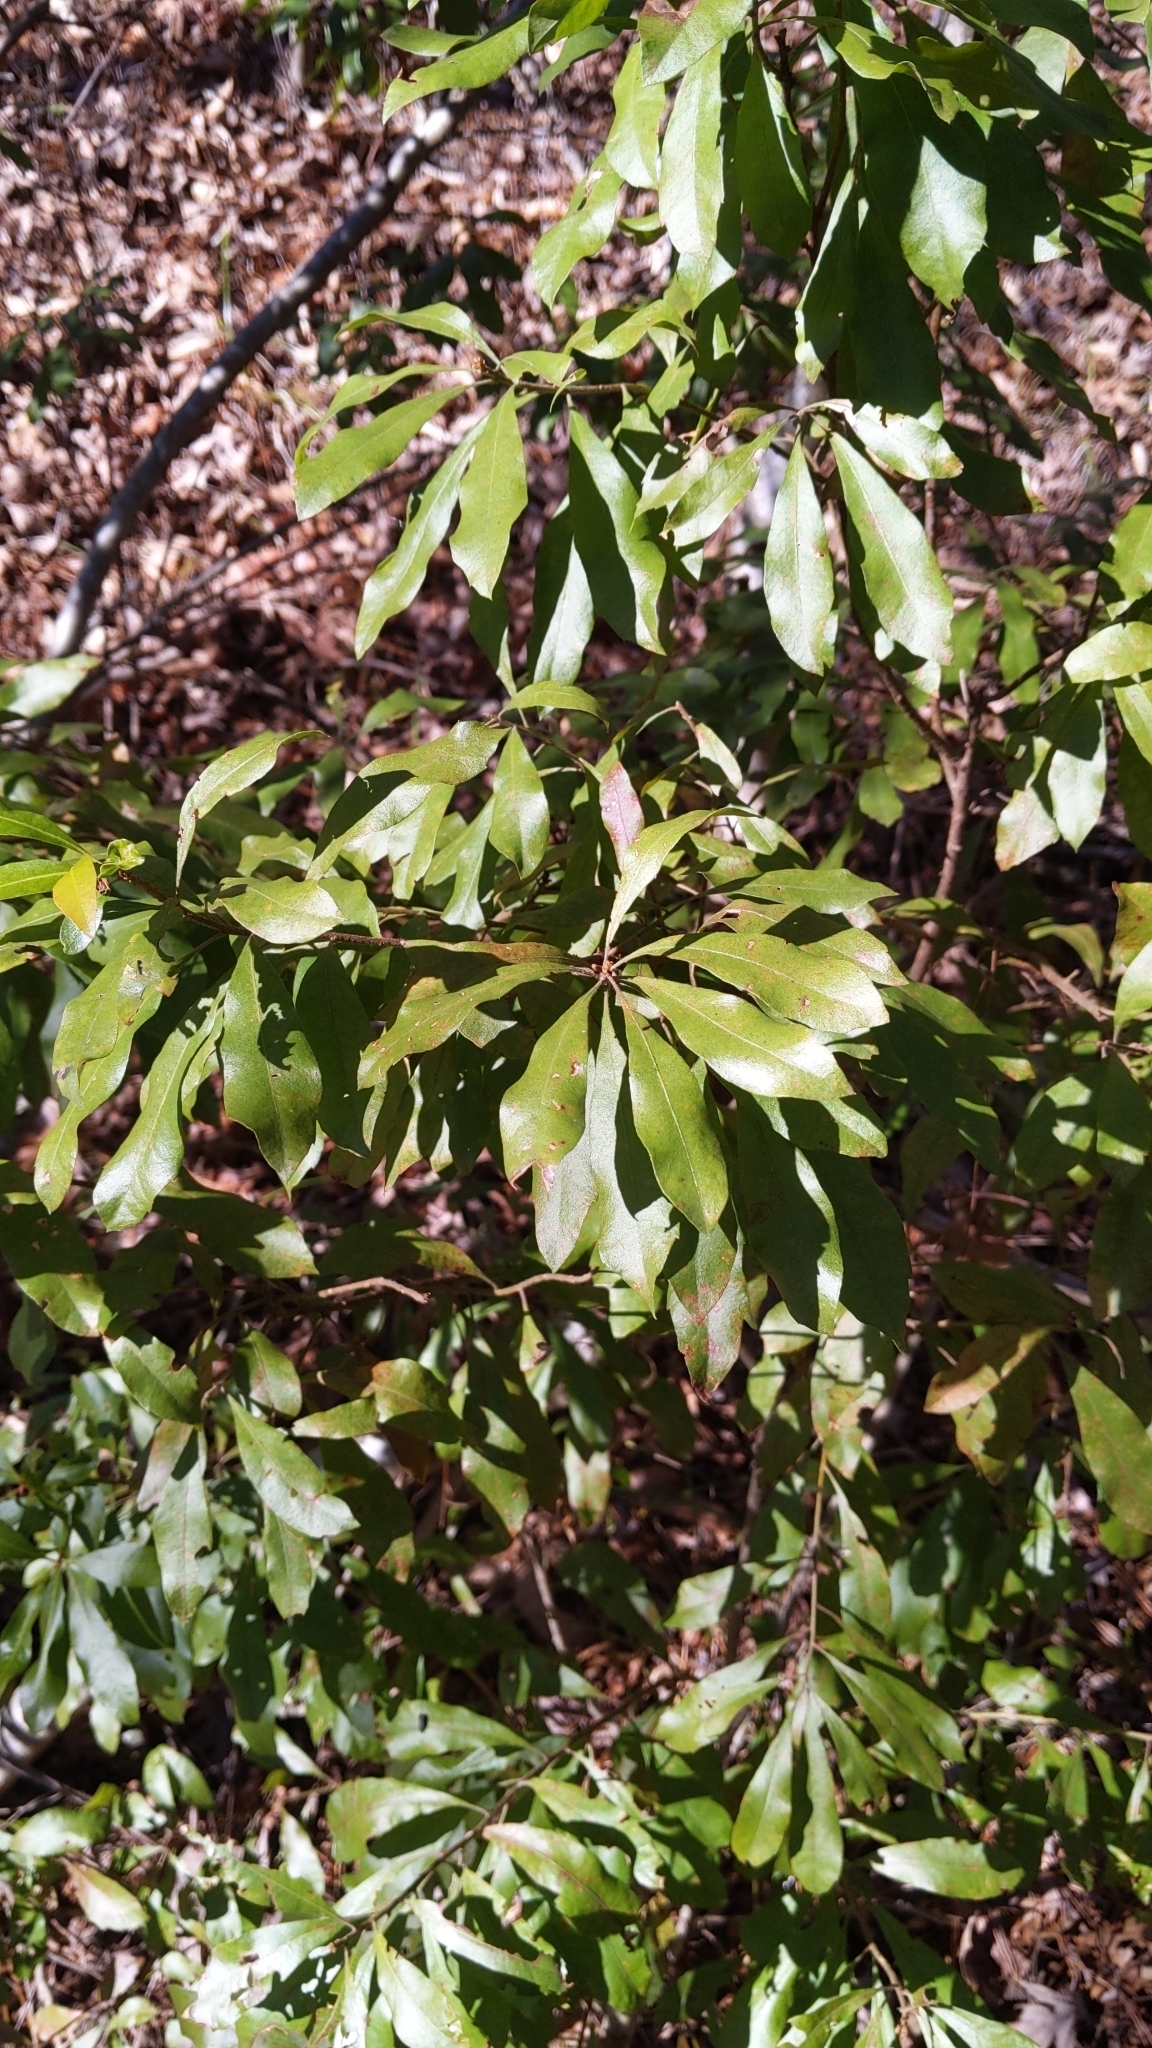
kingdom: Plantae
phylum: Tracheophyta
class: Magnoliopsida
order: Fagales
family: Myricaceae
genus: Morella
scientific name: Morella cerifera
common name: Wax myrtle
